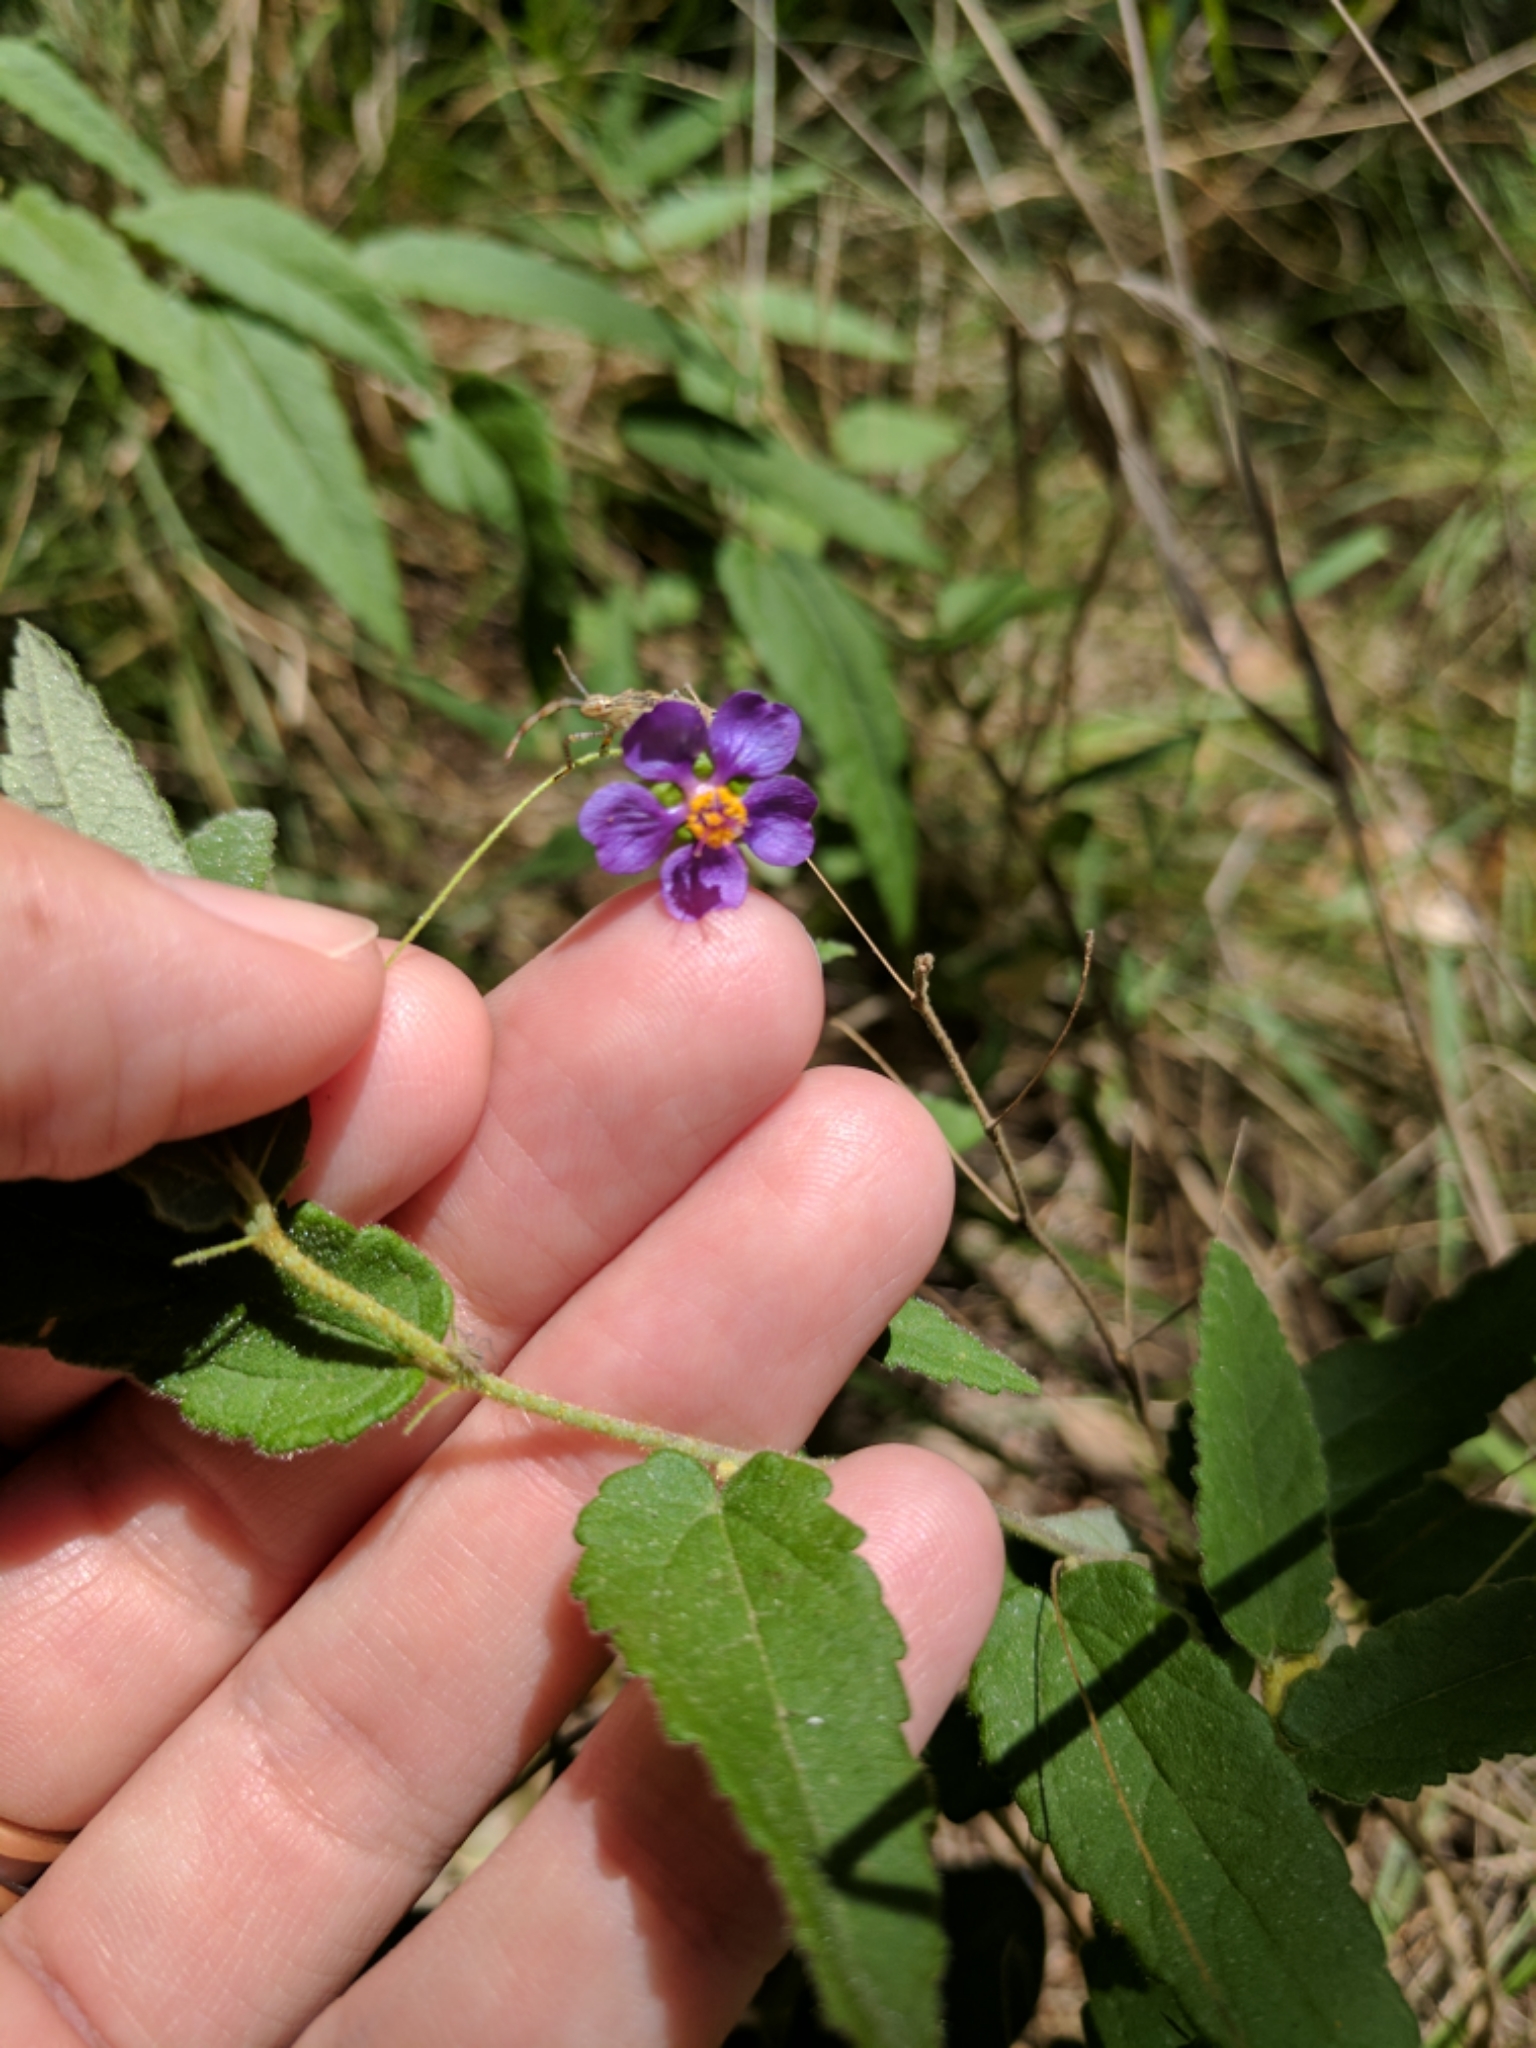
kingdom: Plantae
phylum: Tracheophyta
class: Magnoliopsida
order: Malvales
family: Malvaceae
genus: Meximalva
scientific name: Meximalva filipes
